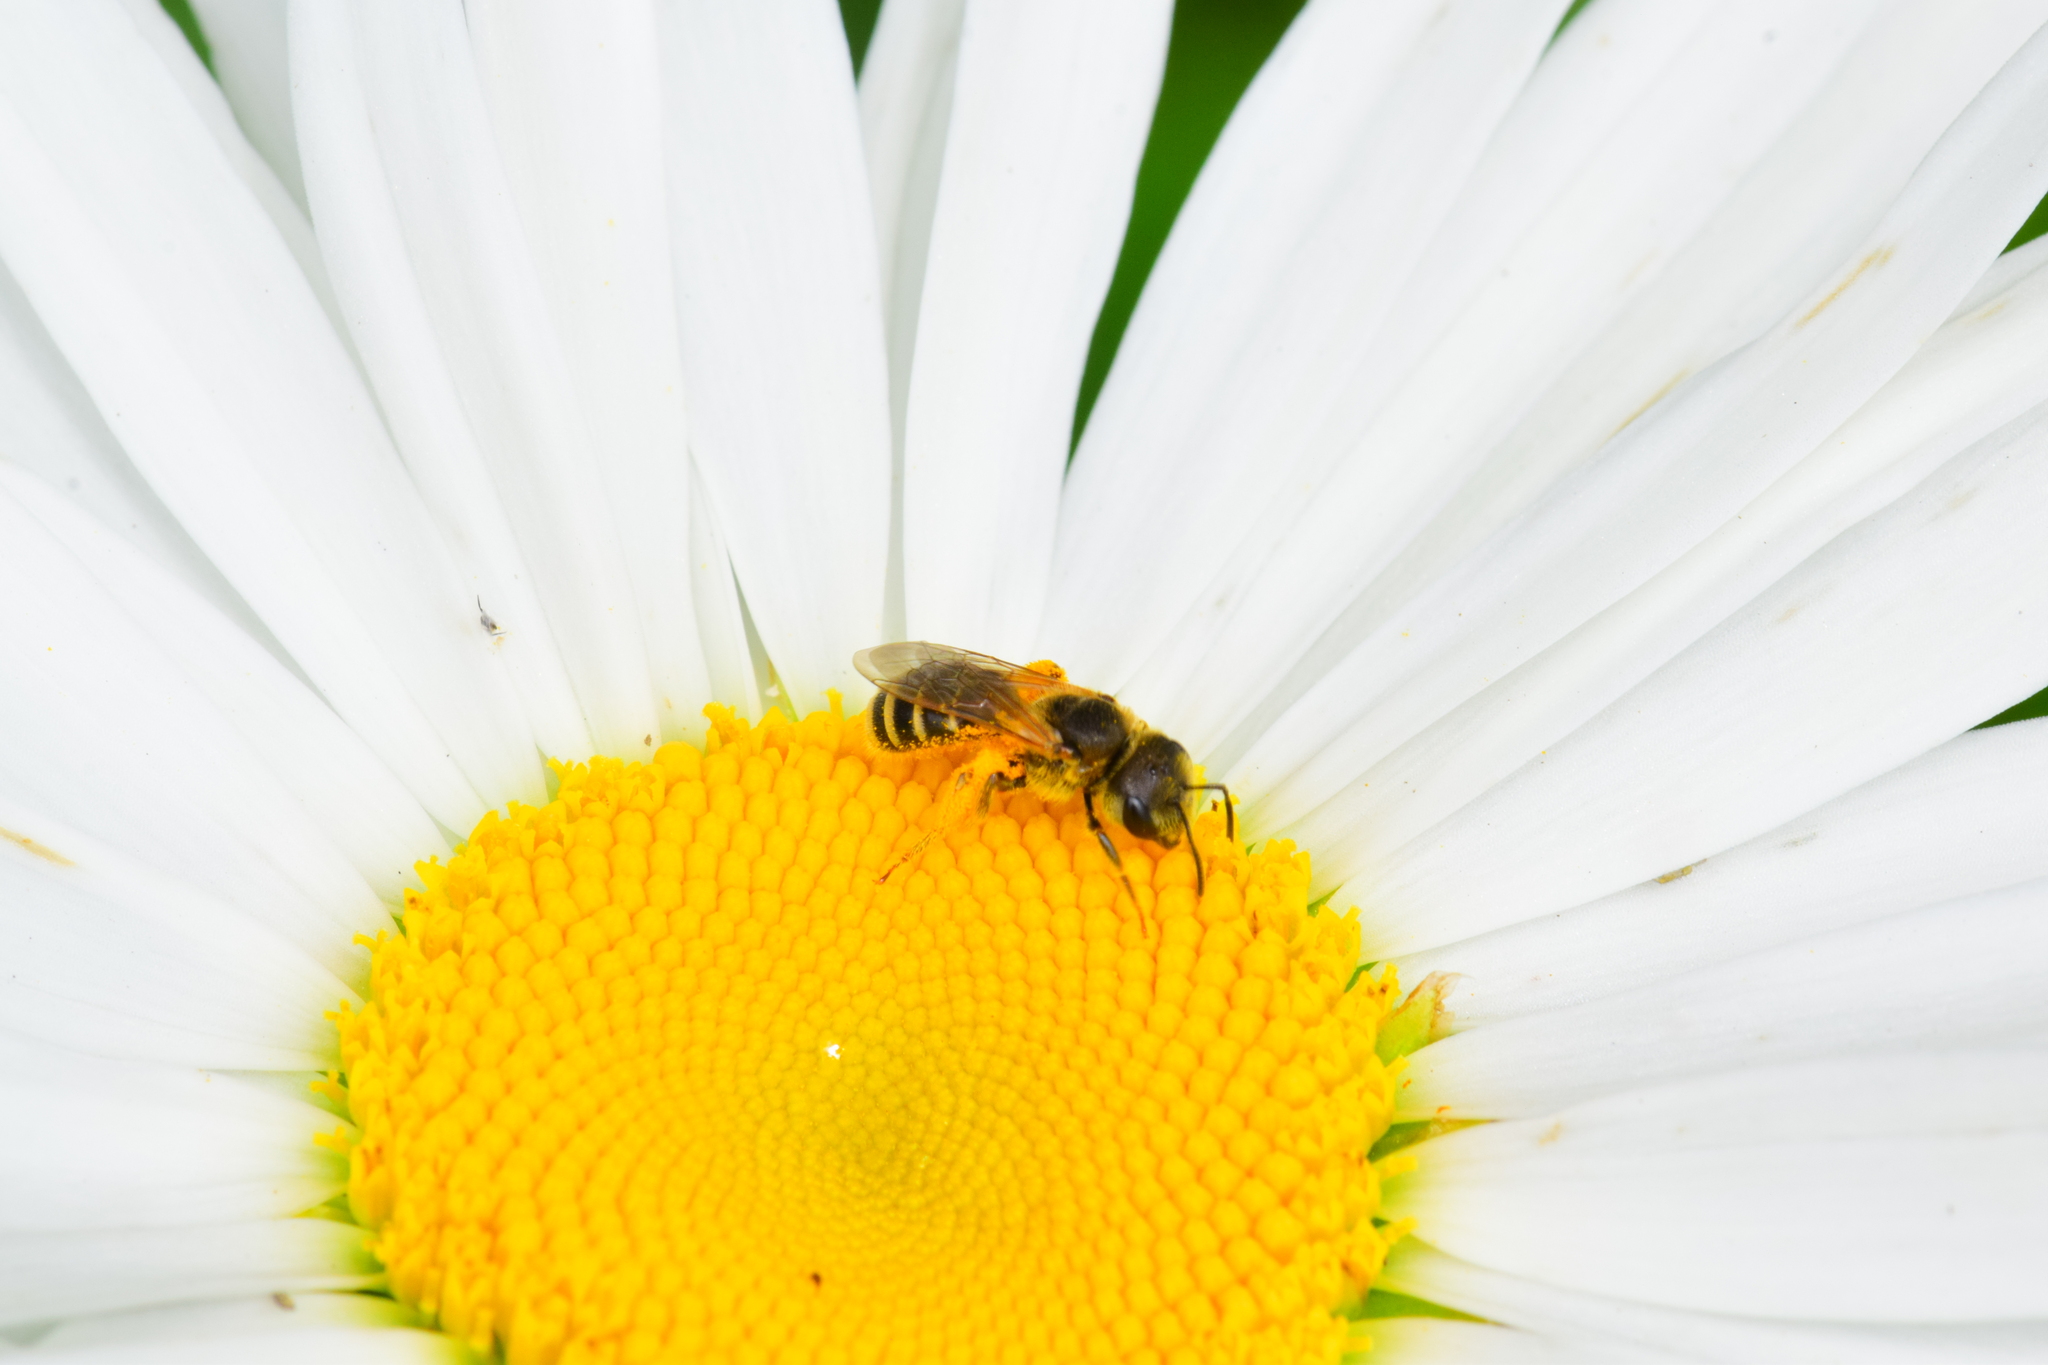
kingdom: Animalia
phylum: Arthropoda
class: Insecta
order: Hymenoptera
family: Halictidae
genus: Halictus
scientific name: Halictus ligatus
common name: Ligated furrow bee
